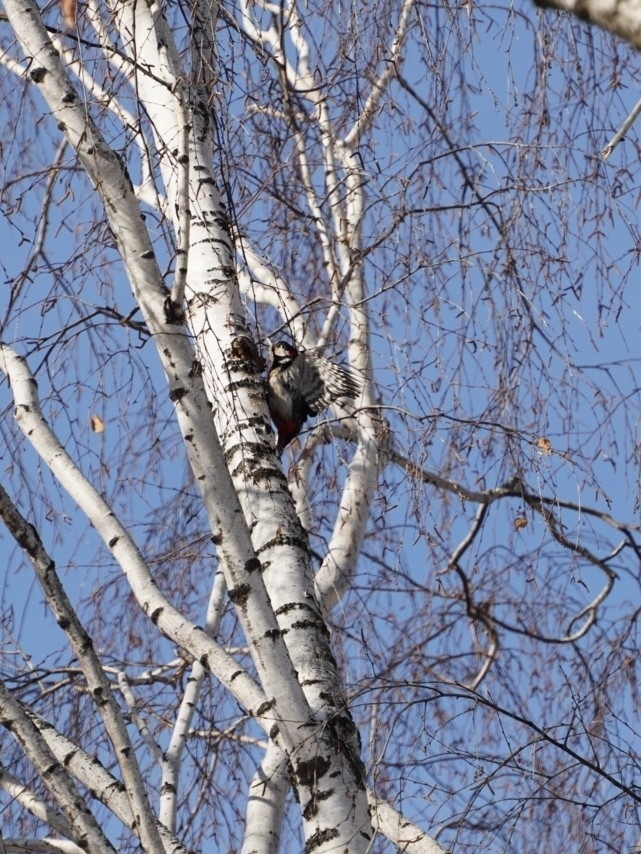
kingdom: Animalia
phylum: Chordata
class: Aves
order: Piciformes
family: Picidae
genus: Dendrocopos
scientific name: Dendrocopos major
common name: Great spotted woodpecker
